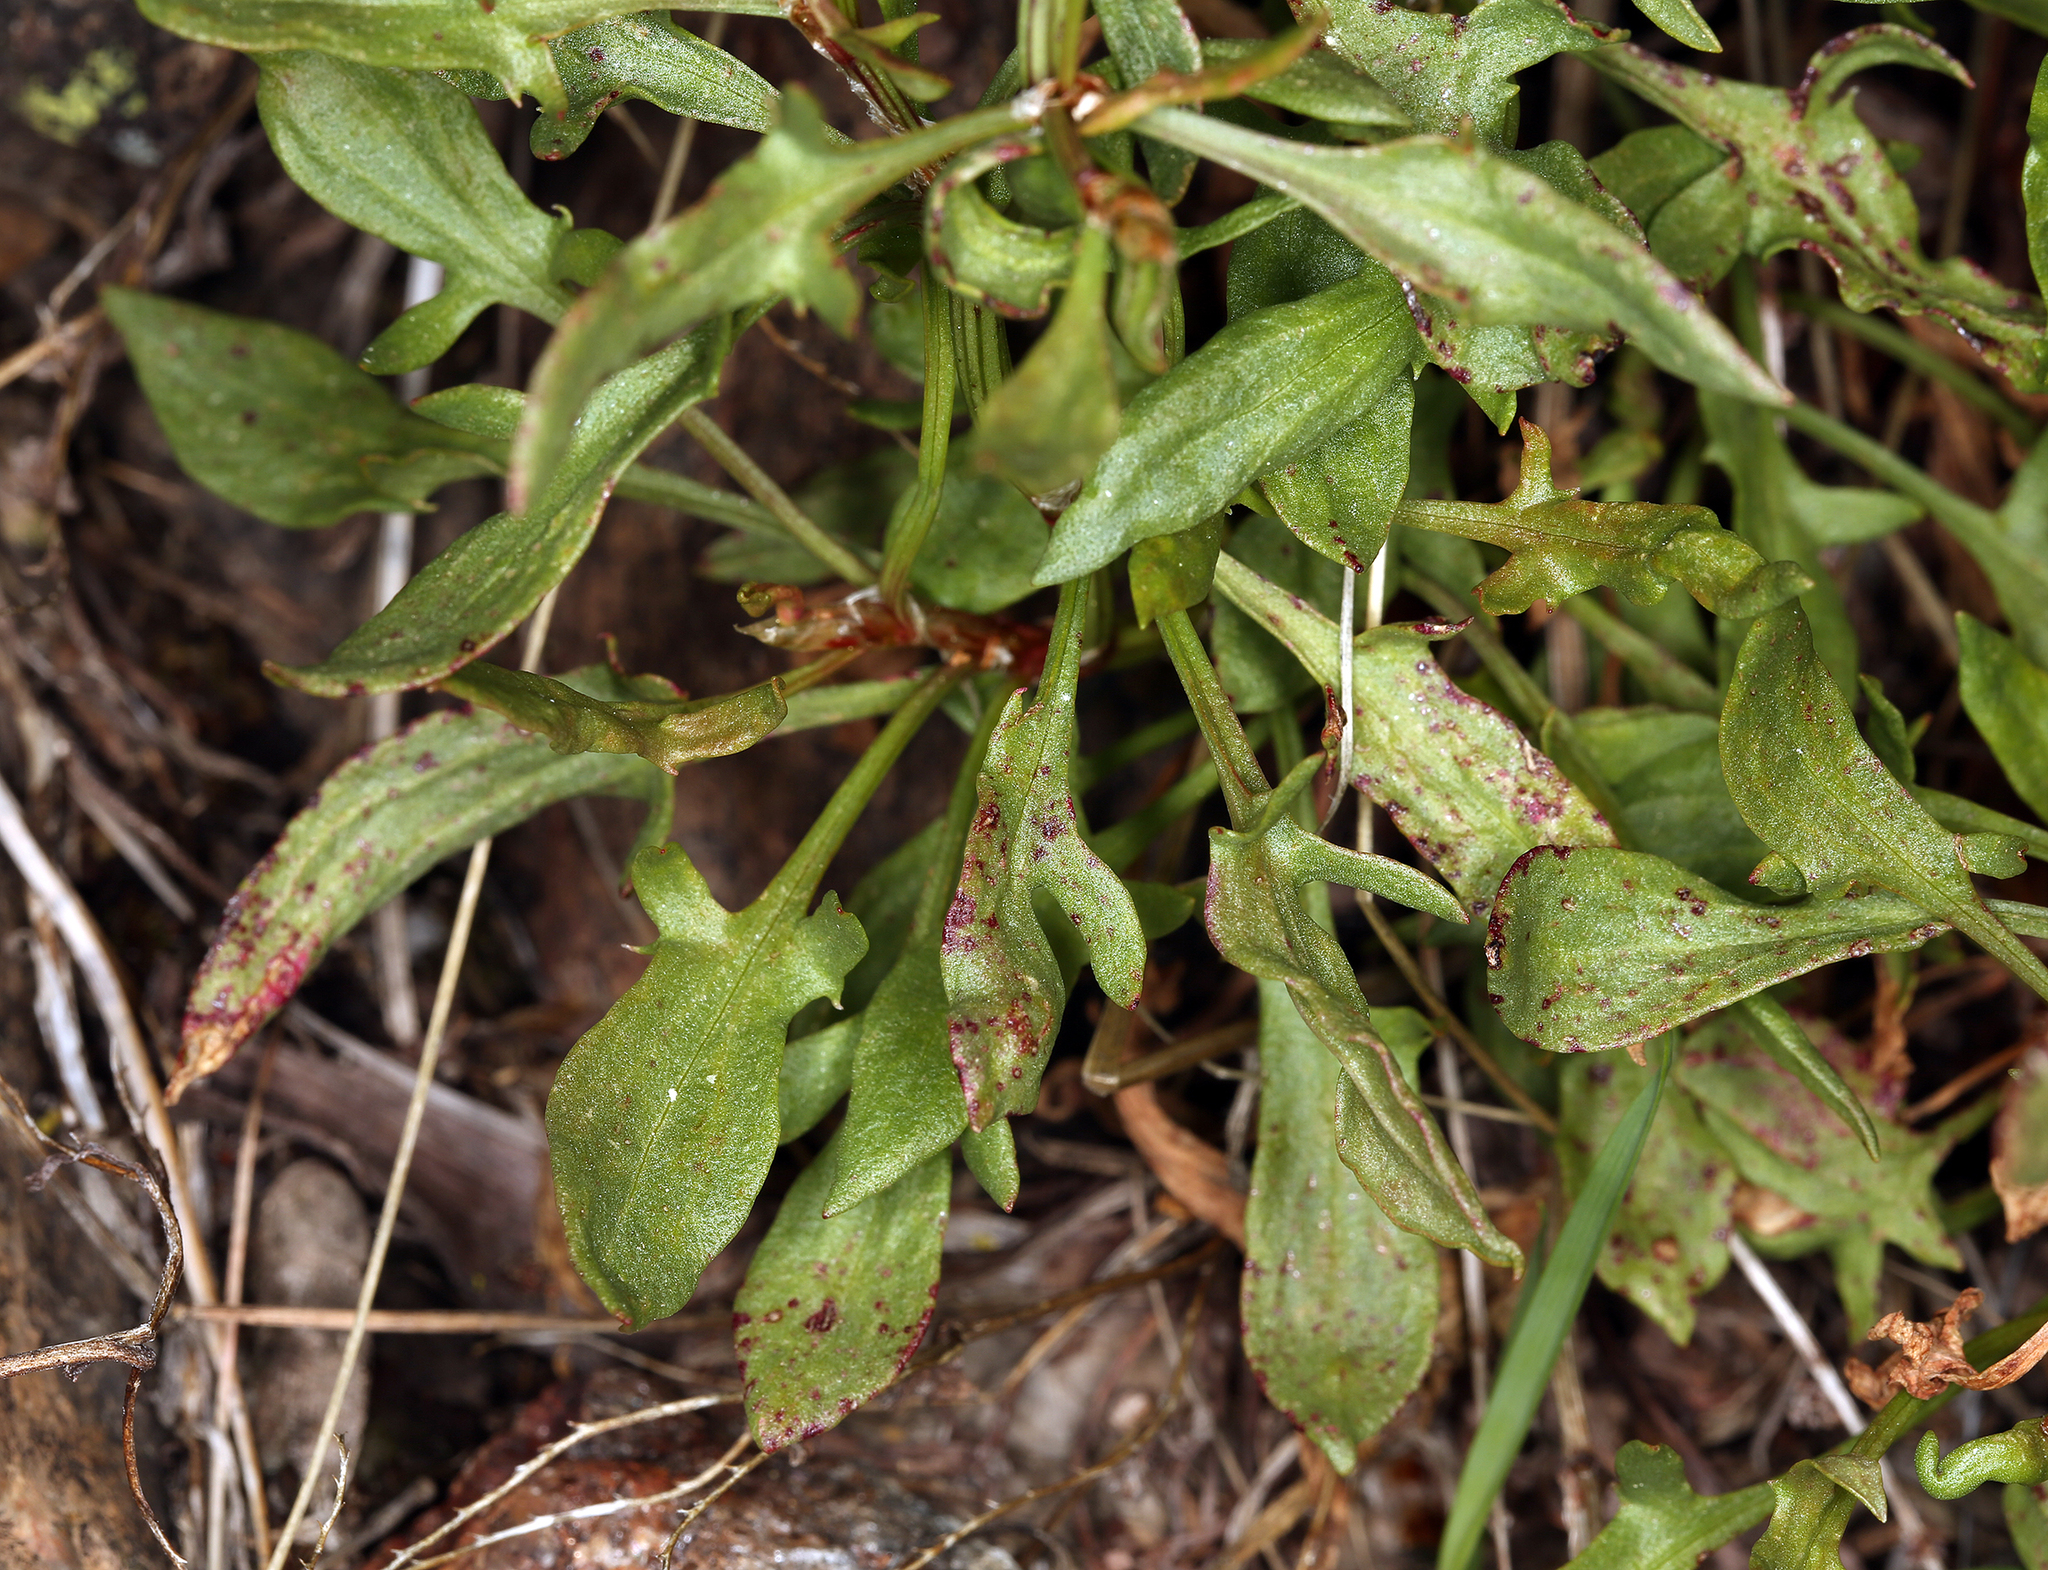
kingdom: Plantae
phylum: Tracheophyta
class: Magnoliopsida
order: Caryophyllales
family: Polygonaceae
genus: Rumex
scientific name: Rumex acetosella
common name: Common sheep sorrel
